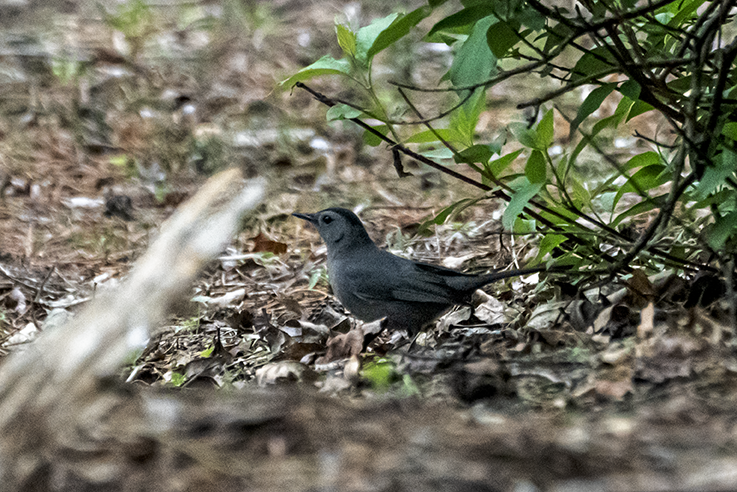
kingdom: Animalia
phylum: Chordata
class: Aves
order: Passeriformes
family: Mimidae
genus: Dumetella
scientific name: Dumetella carolinensis
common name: Gray catbird
